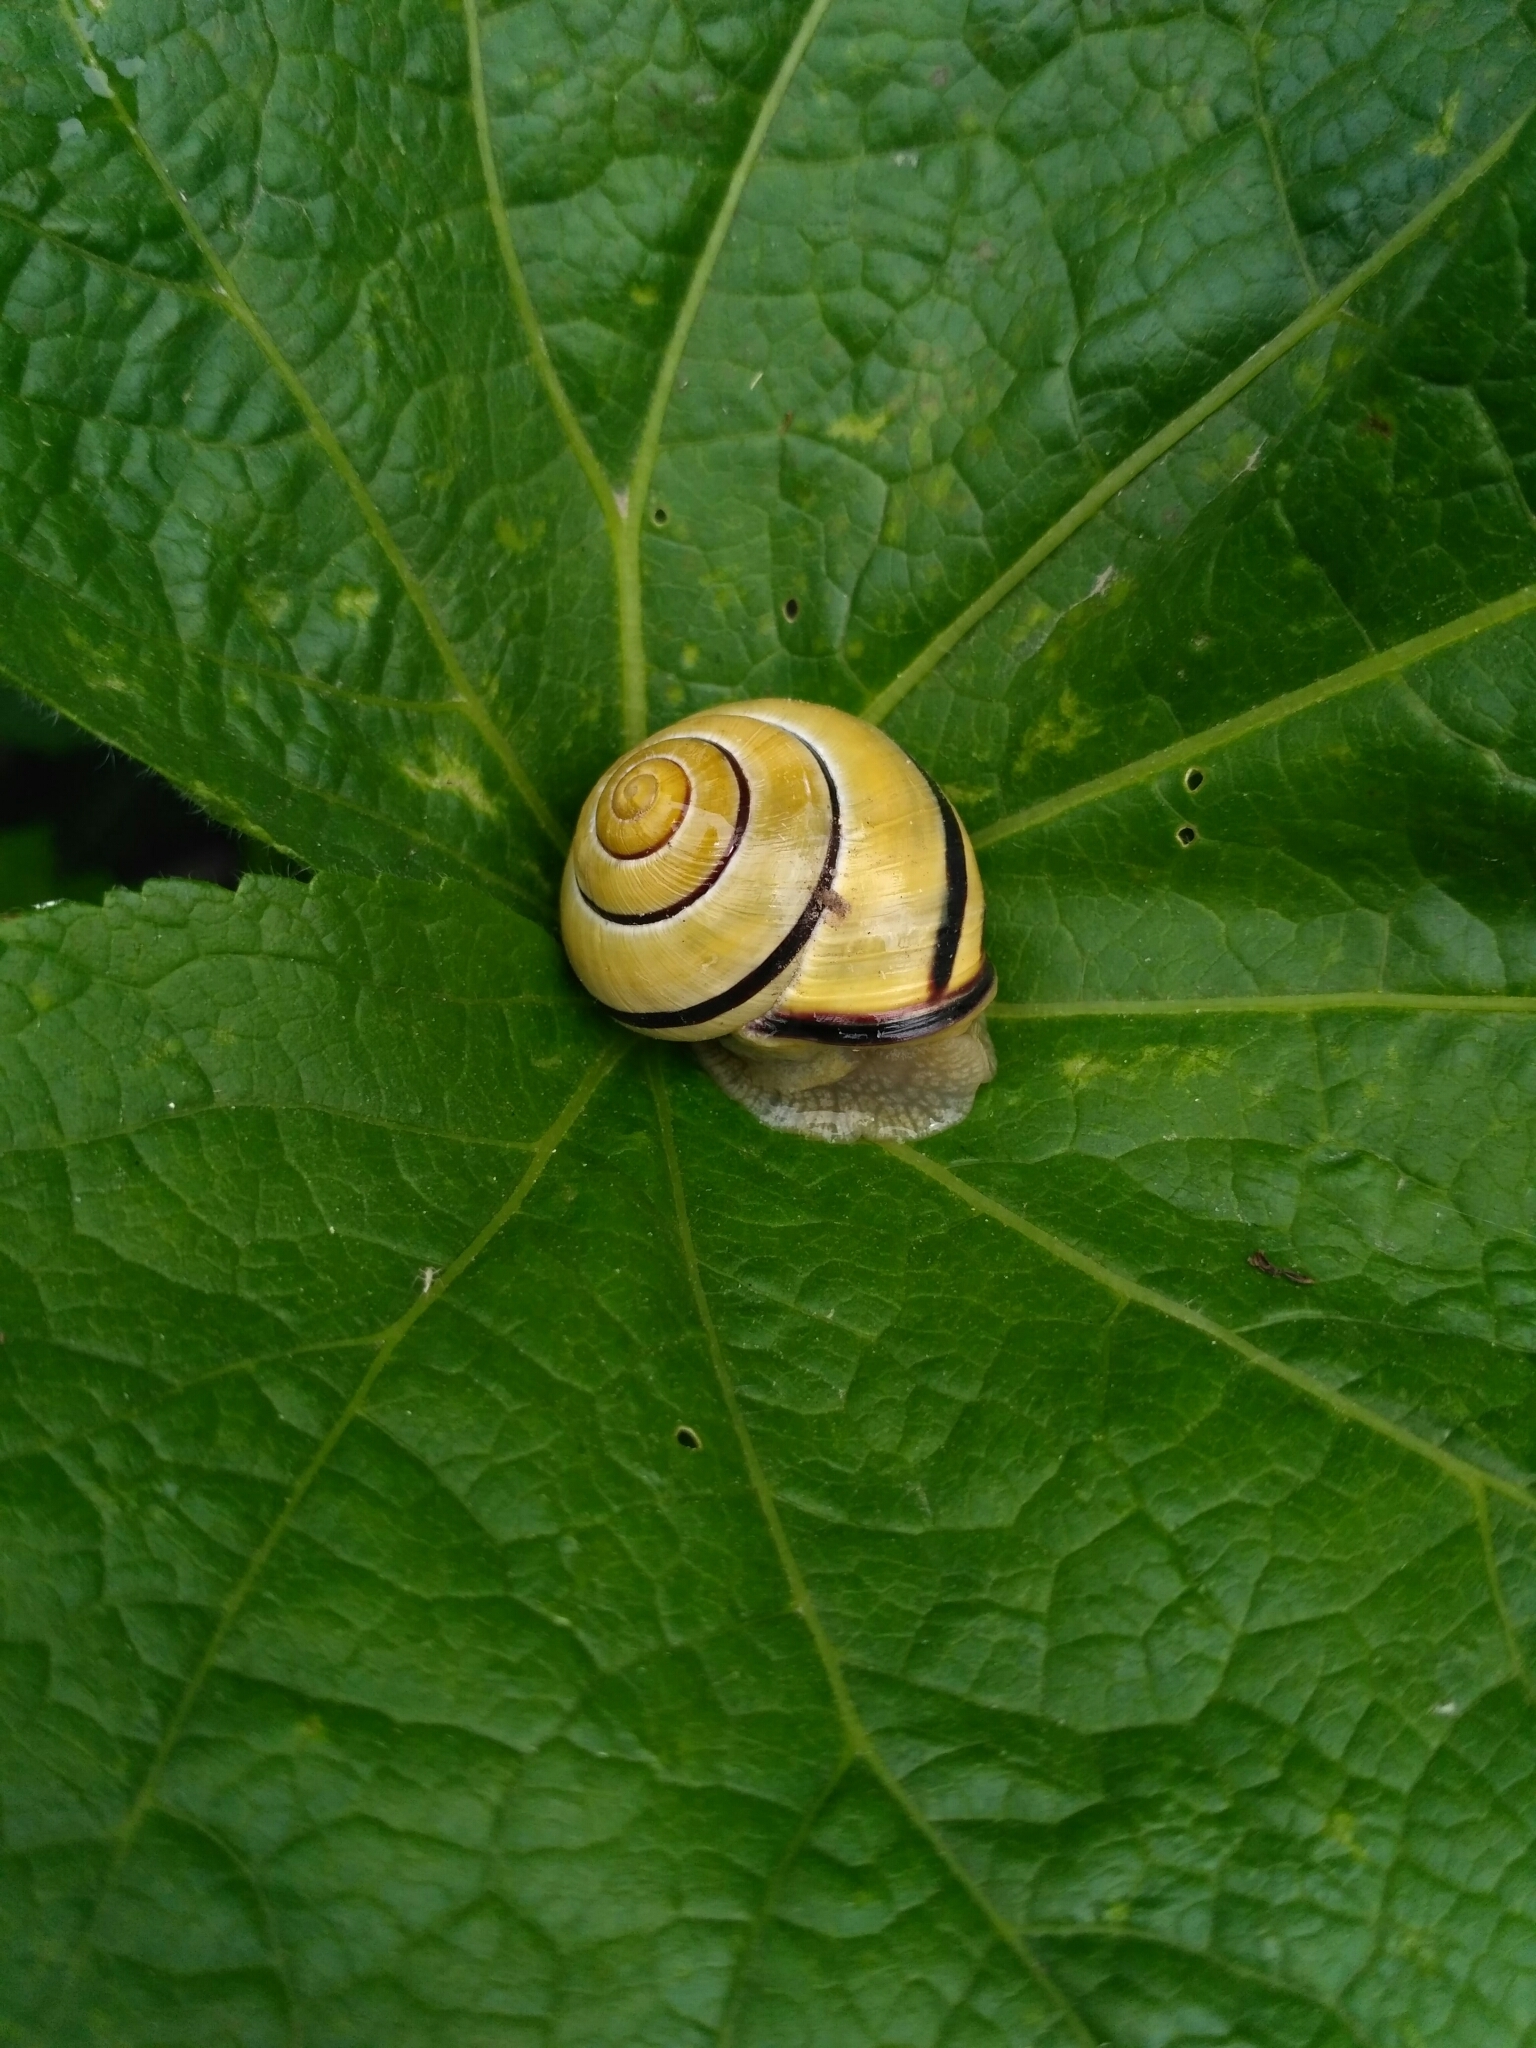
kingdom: Animalia
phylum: Mollusca
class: Gastropoda
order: Stylommatophora
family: Helicidae
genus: Cepaea
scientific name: Cepaea nemoralis
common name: Grovesnail
